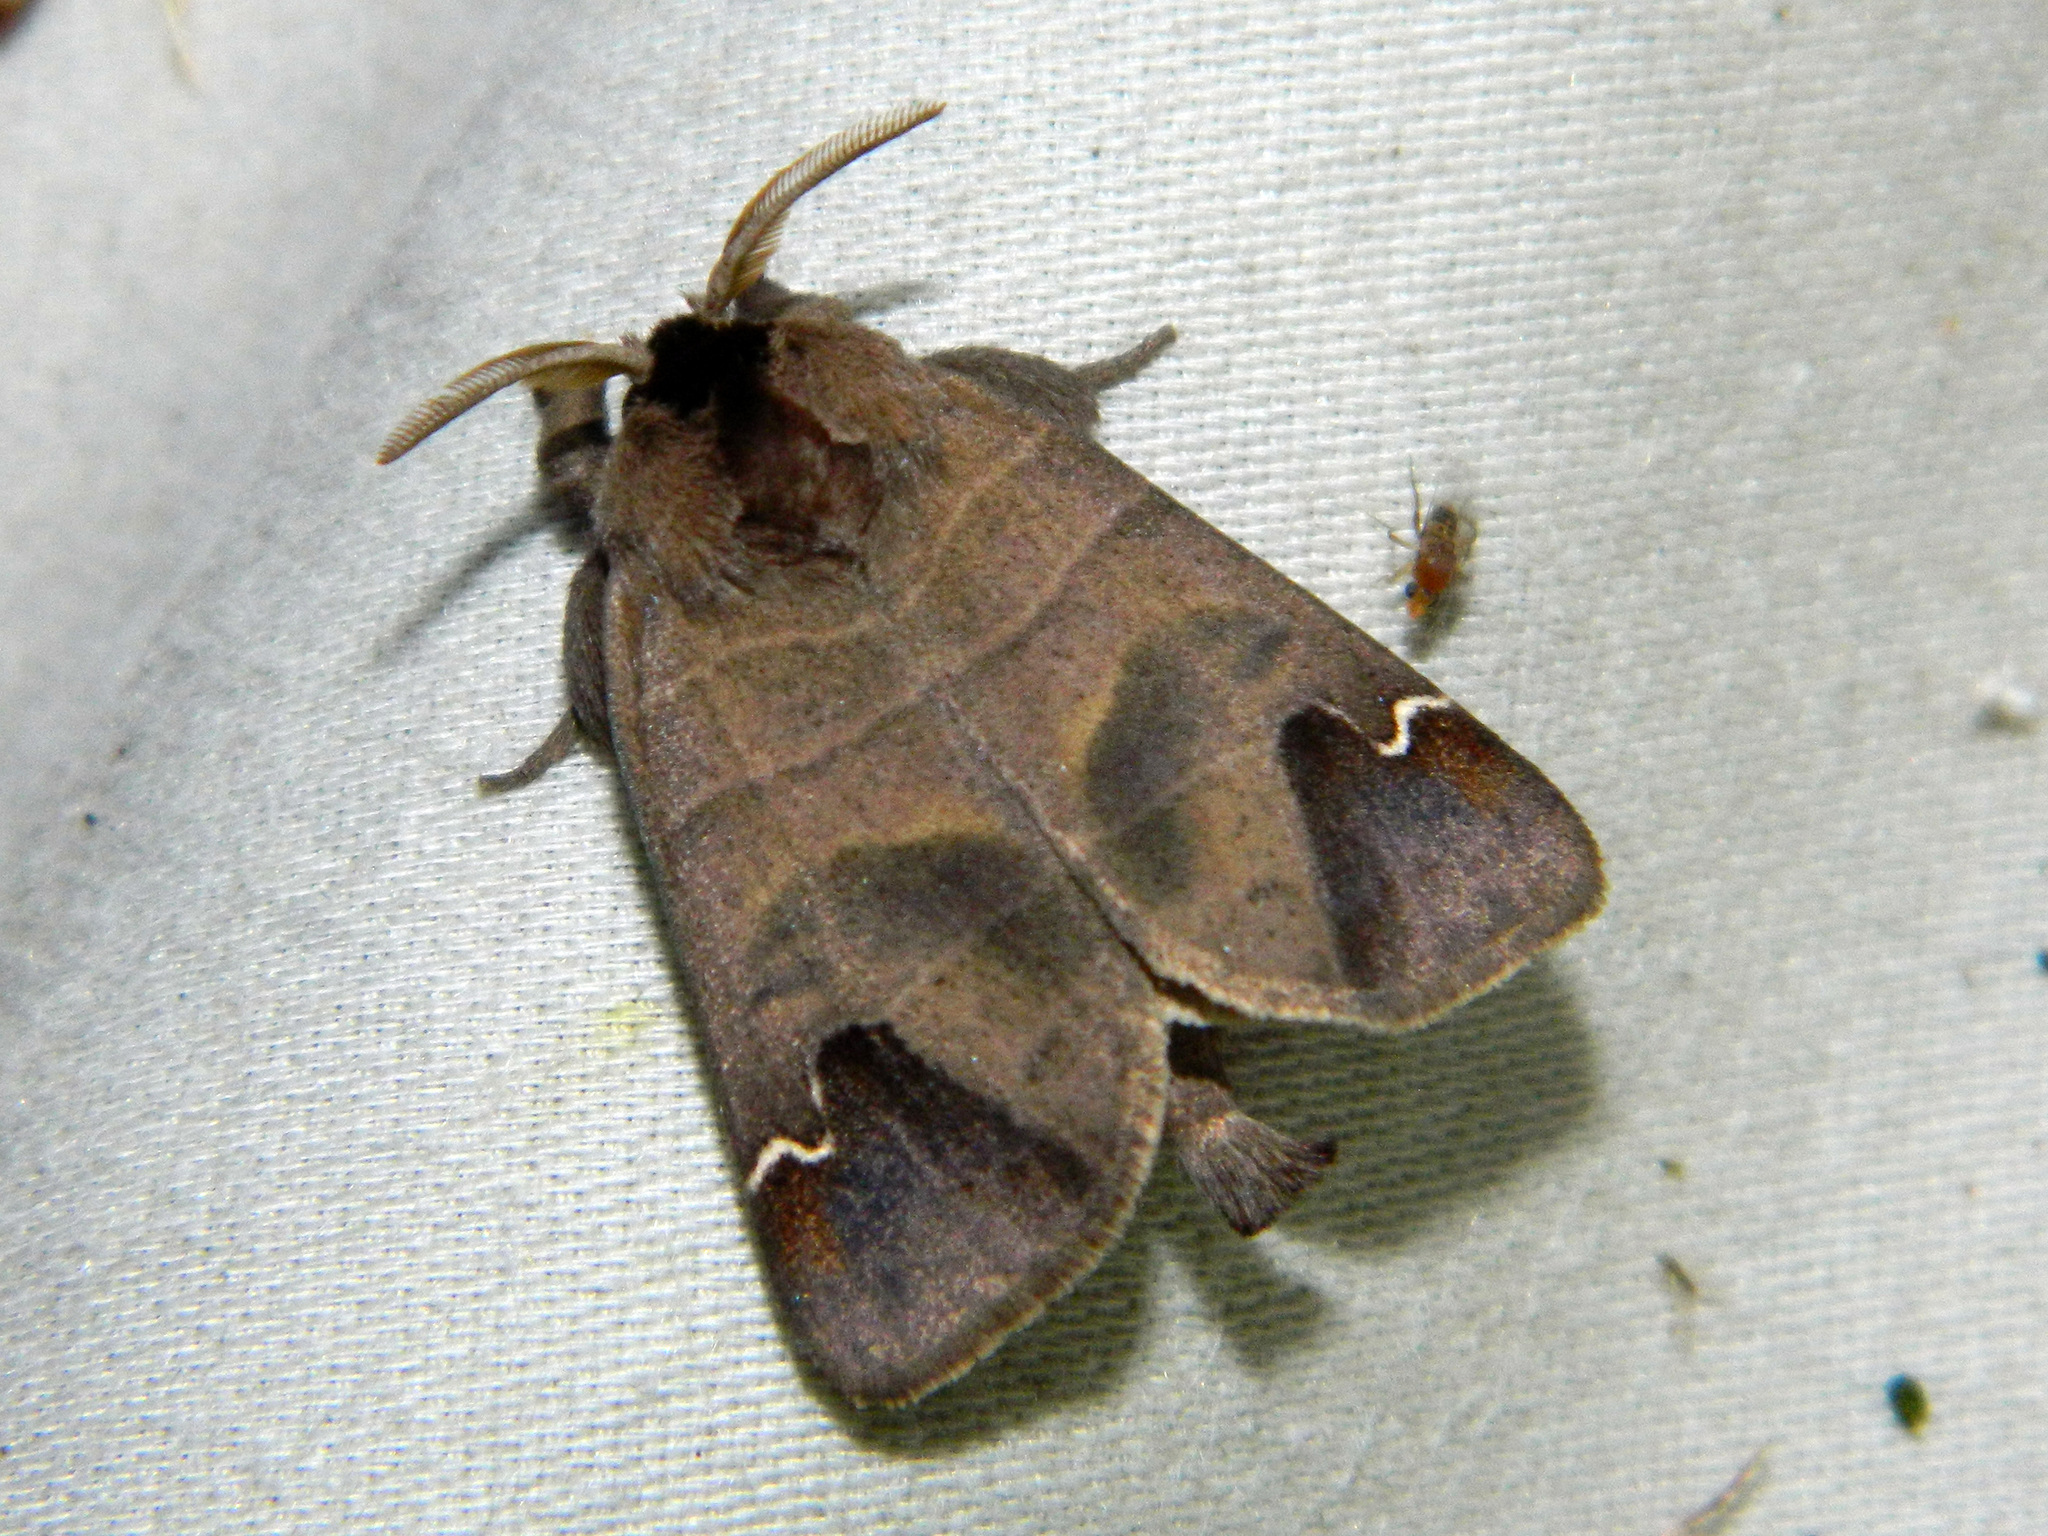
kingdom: Animalia
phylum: Arthropoda
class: Insecta
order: Lepidoptera
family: Notodontidae
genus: Clostera
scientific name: Clostera albosigma
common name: Sigmoid prominent
